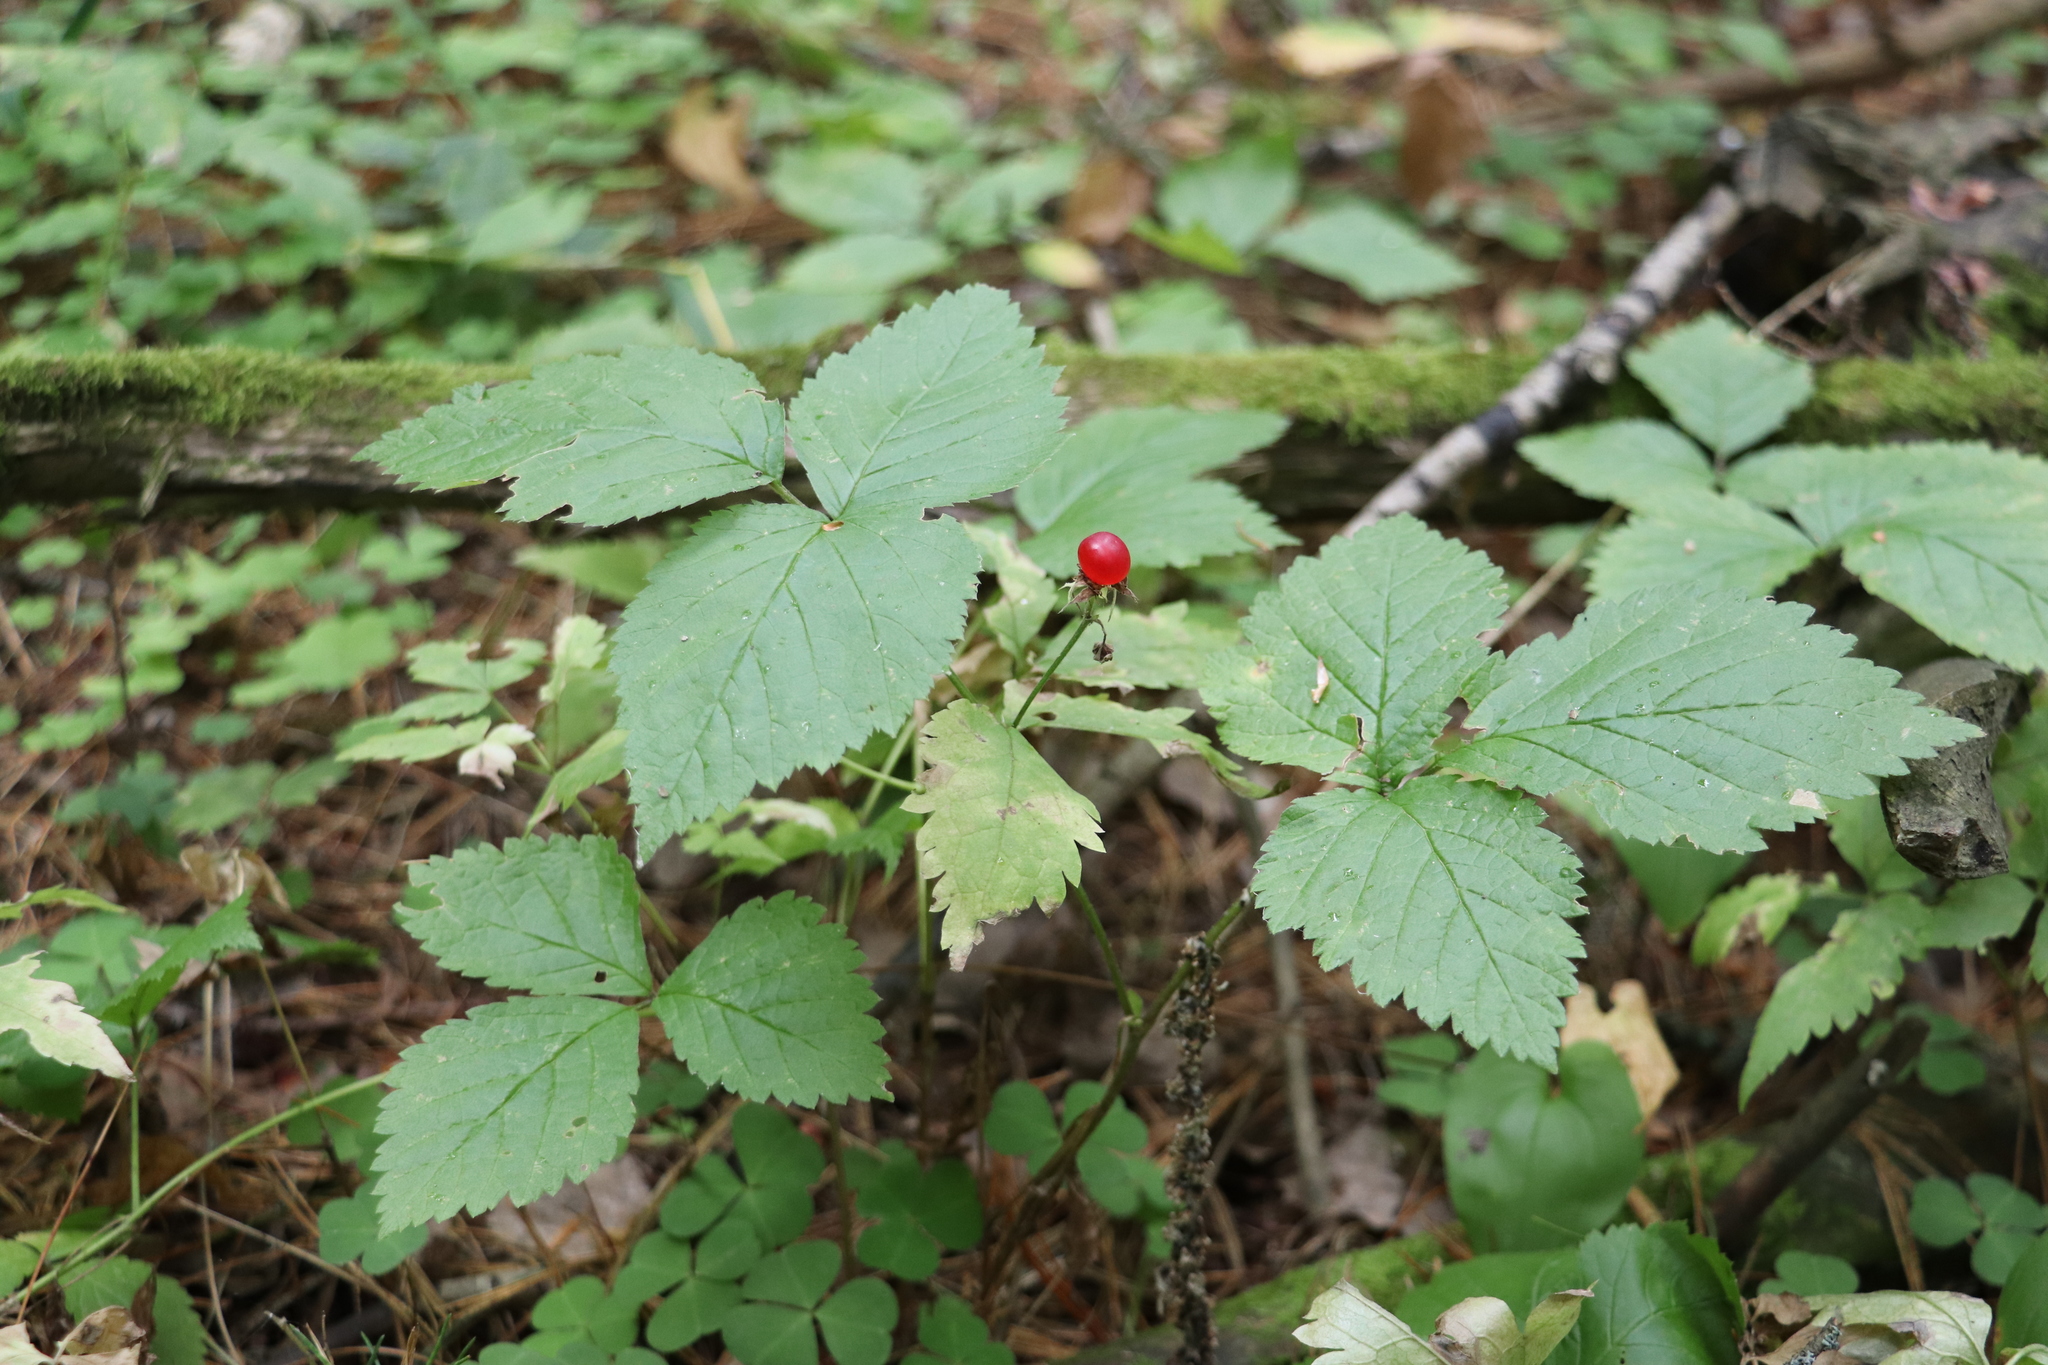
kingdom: Plantae
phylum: Tracheophyta
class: Magnoliopsida
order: Rosales
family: Rosaceae
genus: Rubus
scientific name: Rubus saxatilis
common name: Stone bramble
